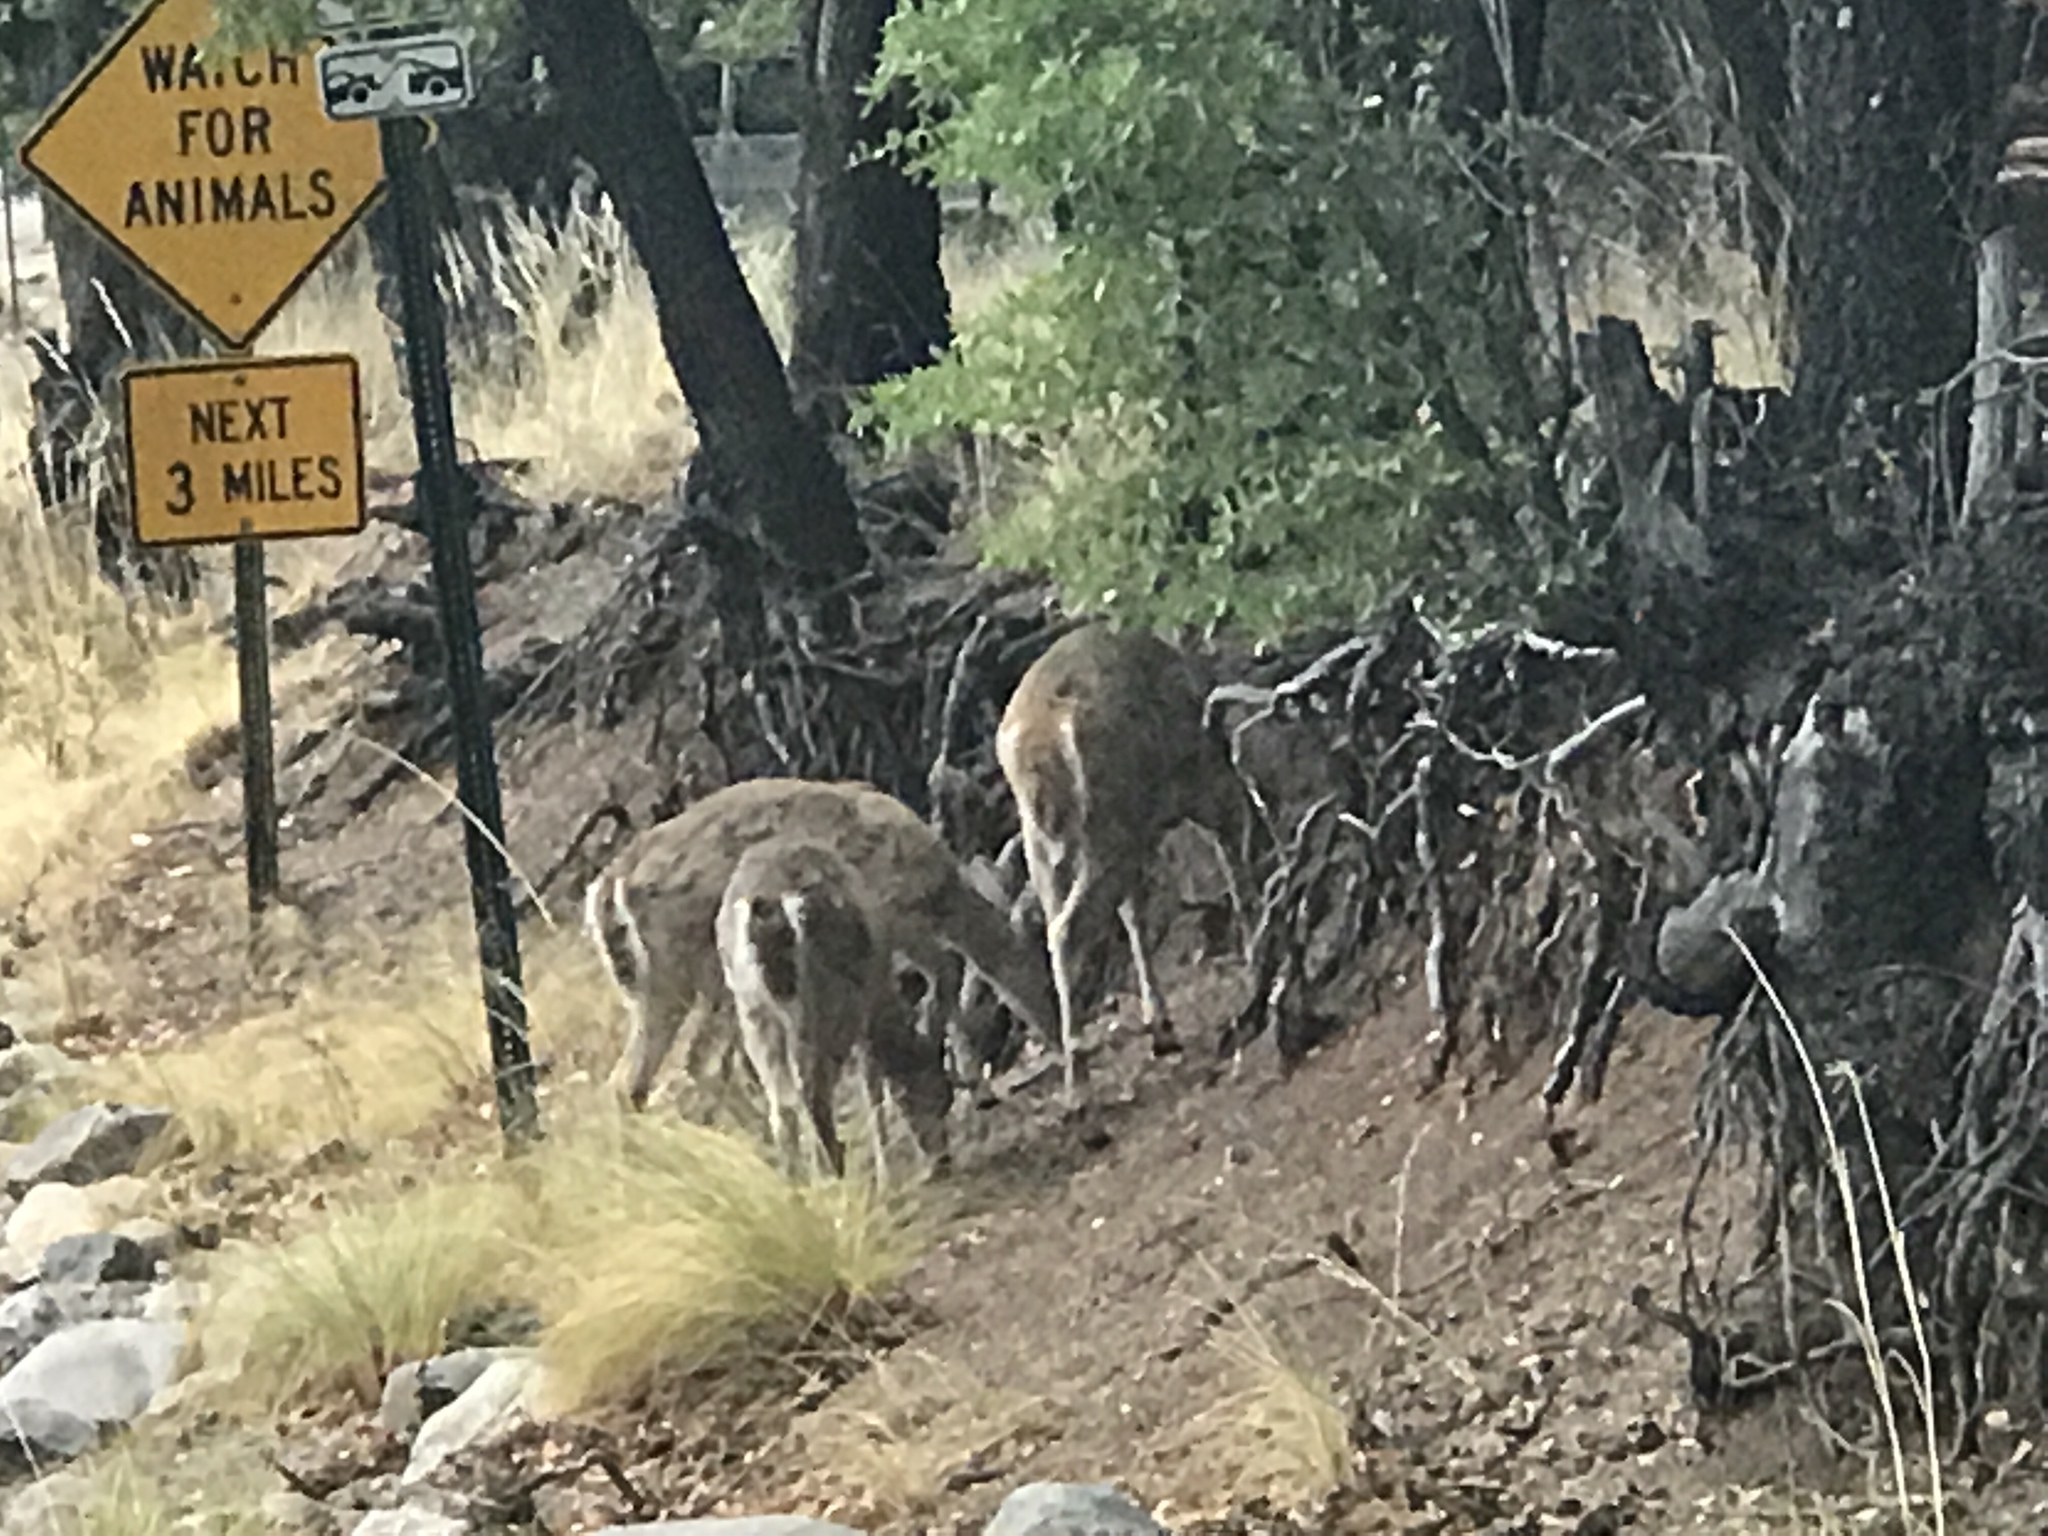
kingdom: Animalia
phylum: Chordata
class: Mammalia
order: Artiodactyla
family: Cervidae
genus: Odocoileus
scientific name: Odocoileus virginianus
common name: White-tailed deer
